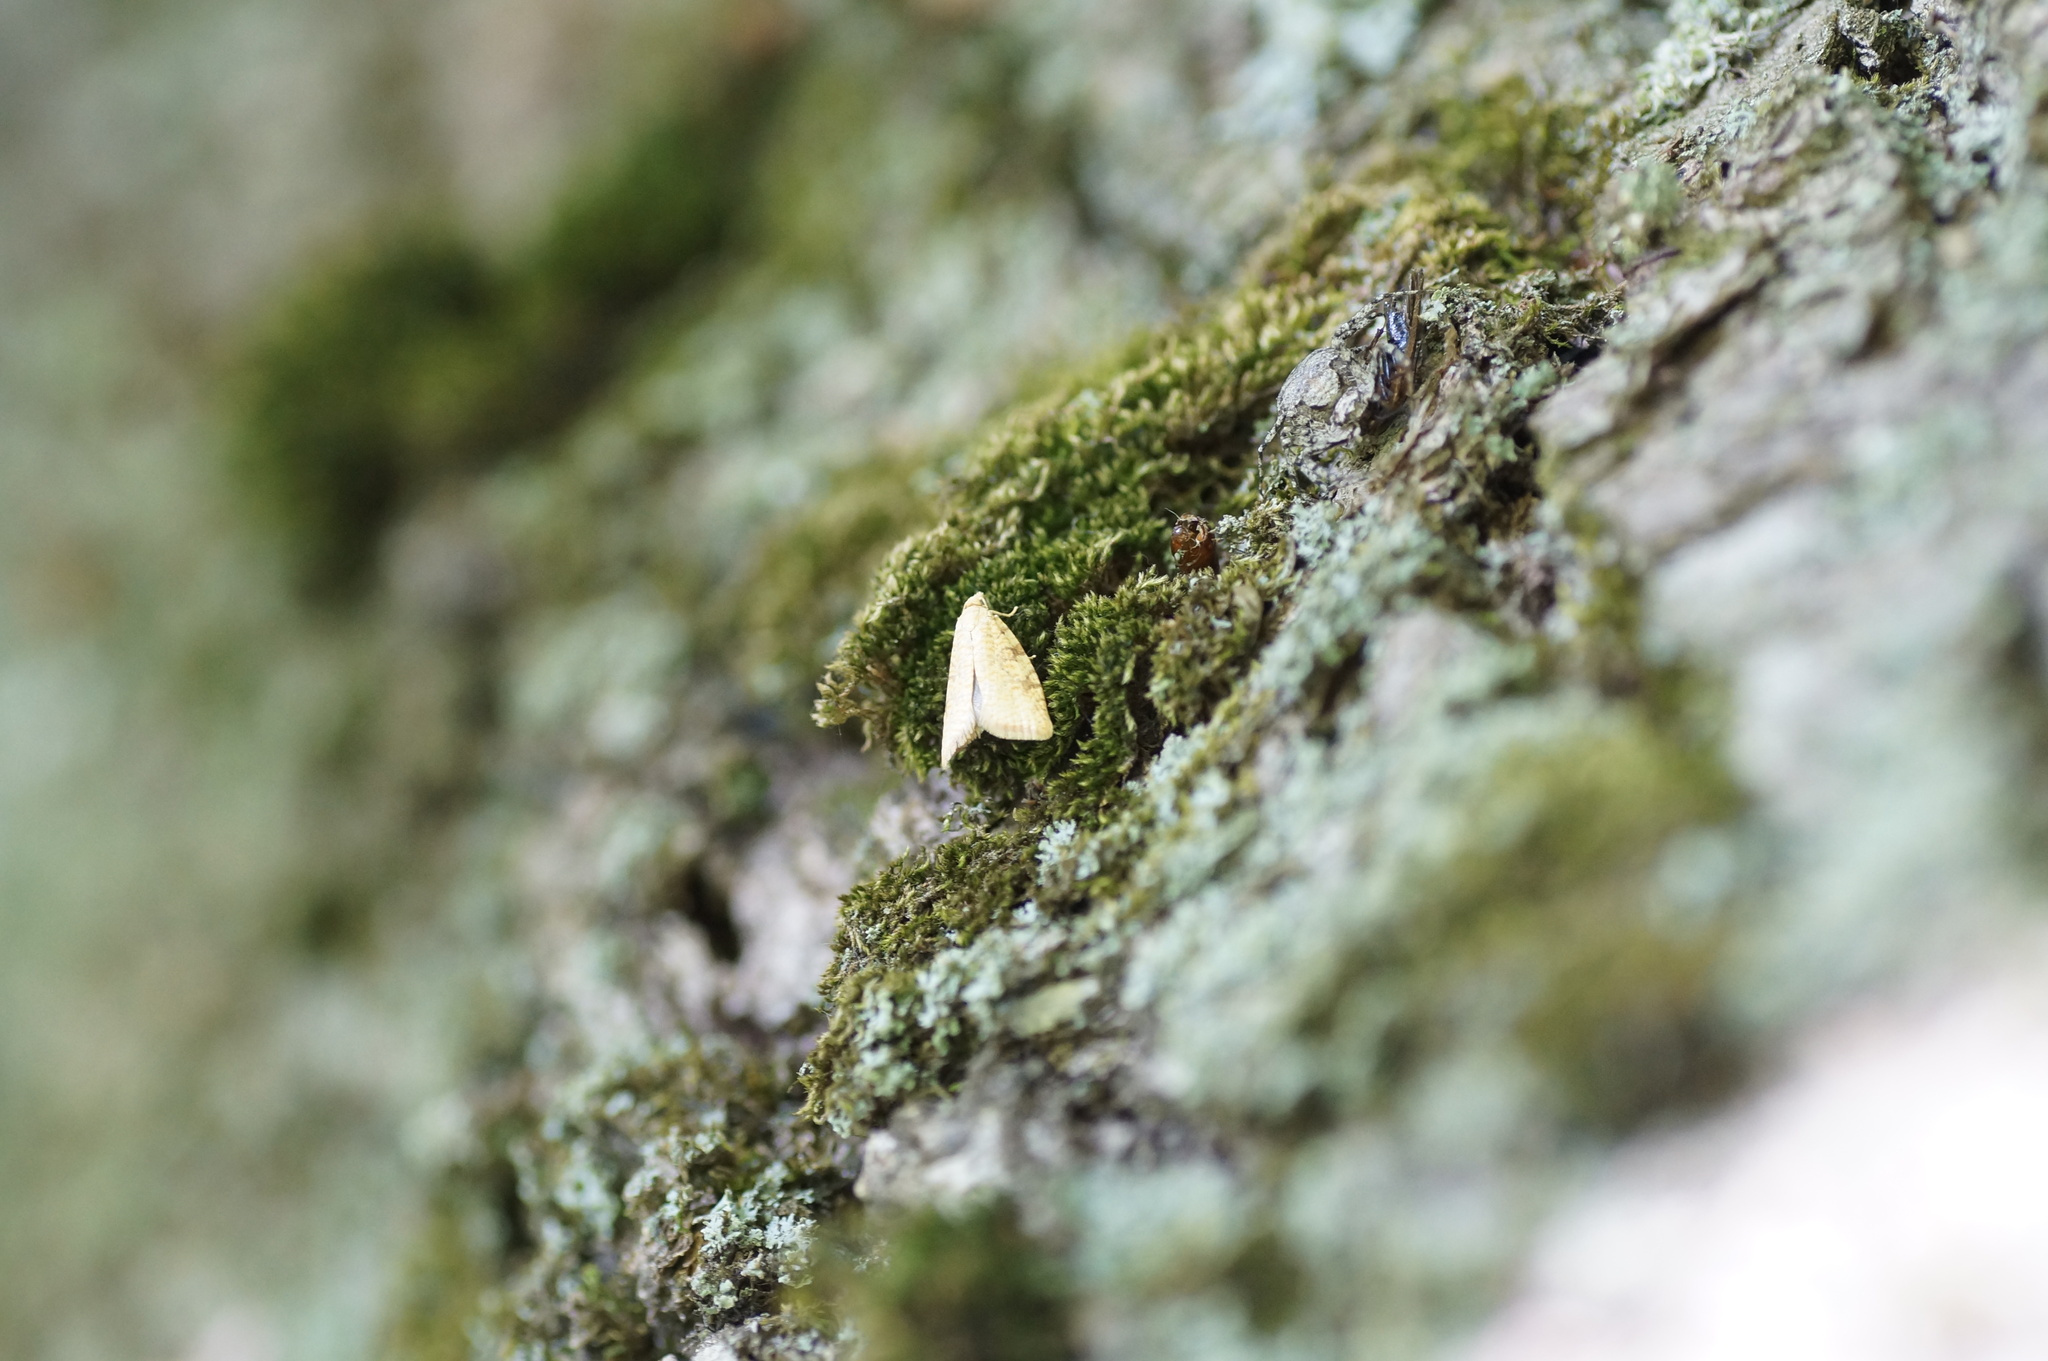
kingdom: Animalia
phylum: Arthropoda
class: Insecta
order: Lepidoptera
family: Tortricidae
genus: Aleimma
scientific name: Aleimma loeflingiana
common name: Yellow oak button
